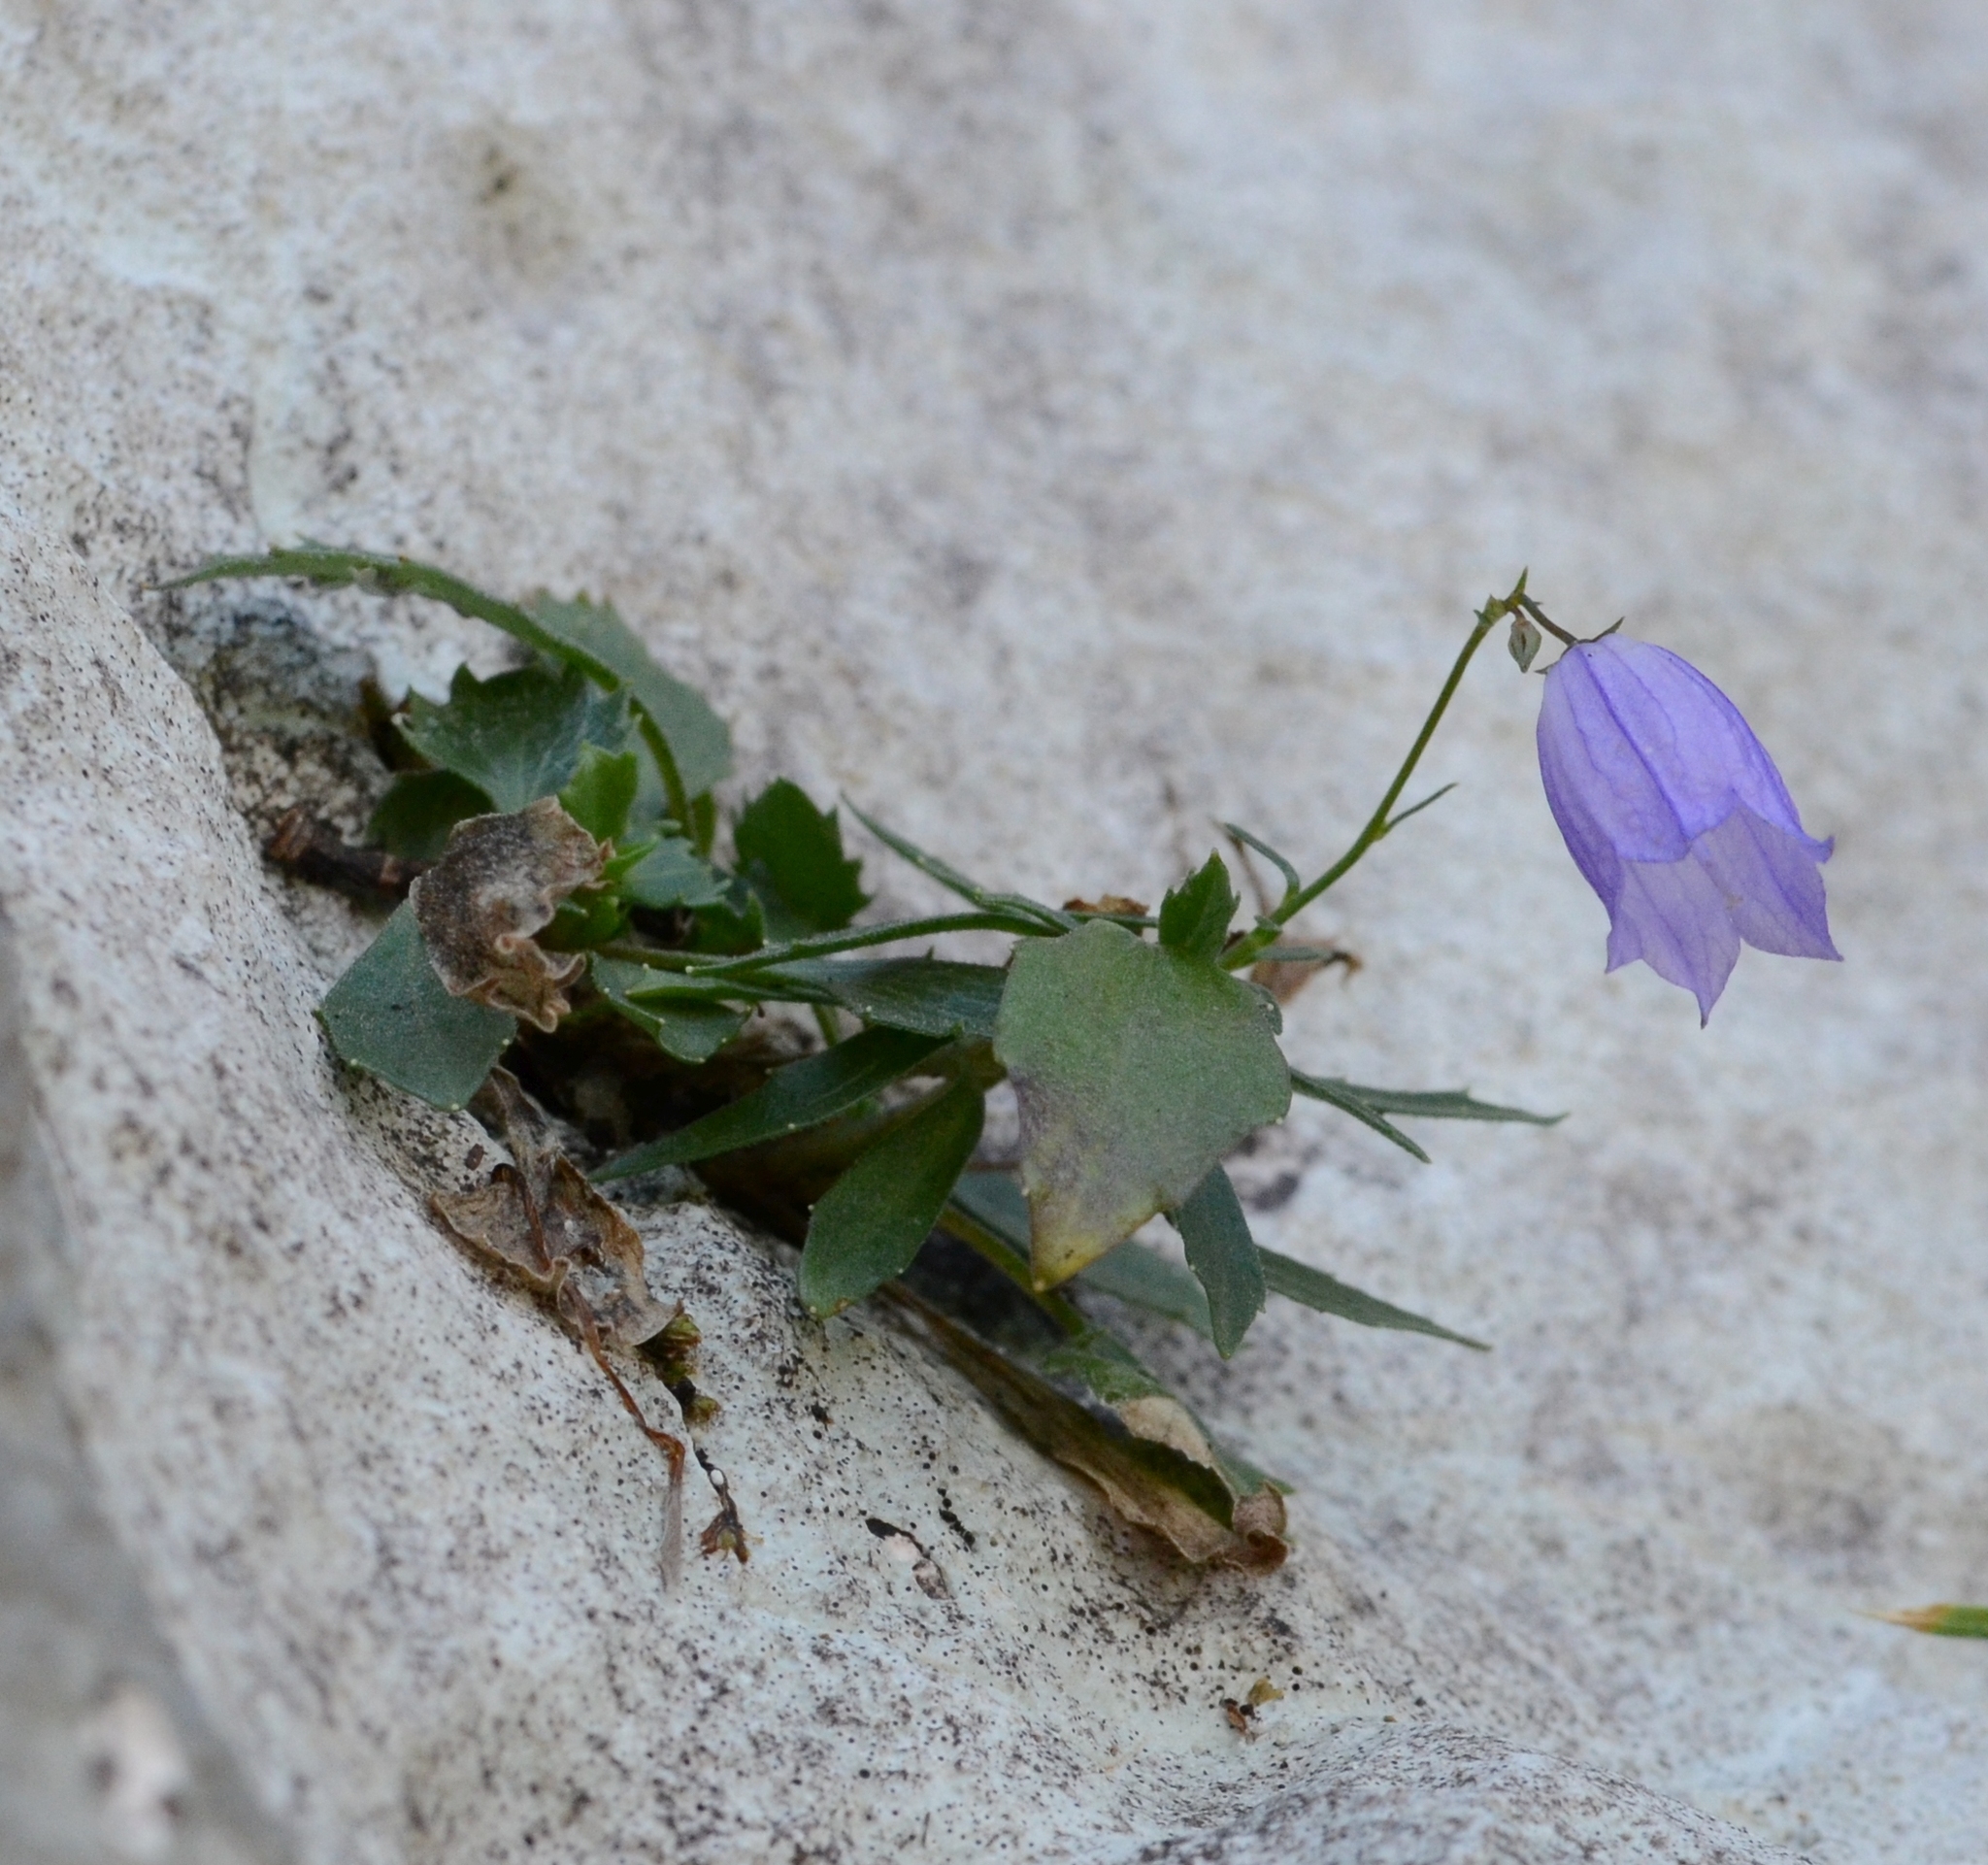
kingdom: Plantae
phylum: Tracheophyta
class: Magnoliopsida
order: Asterales
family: Campanulaceae
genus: Campanula
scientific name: Campanula cespitosa
